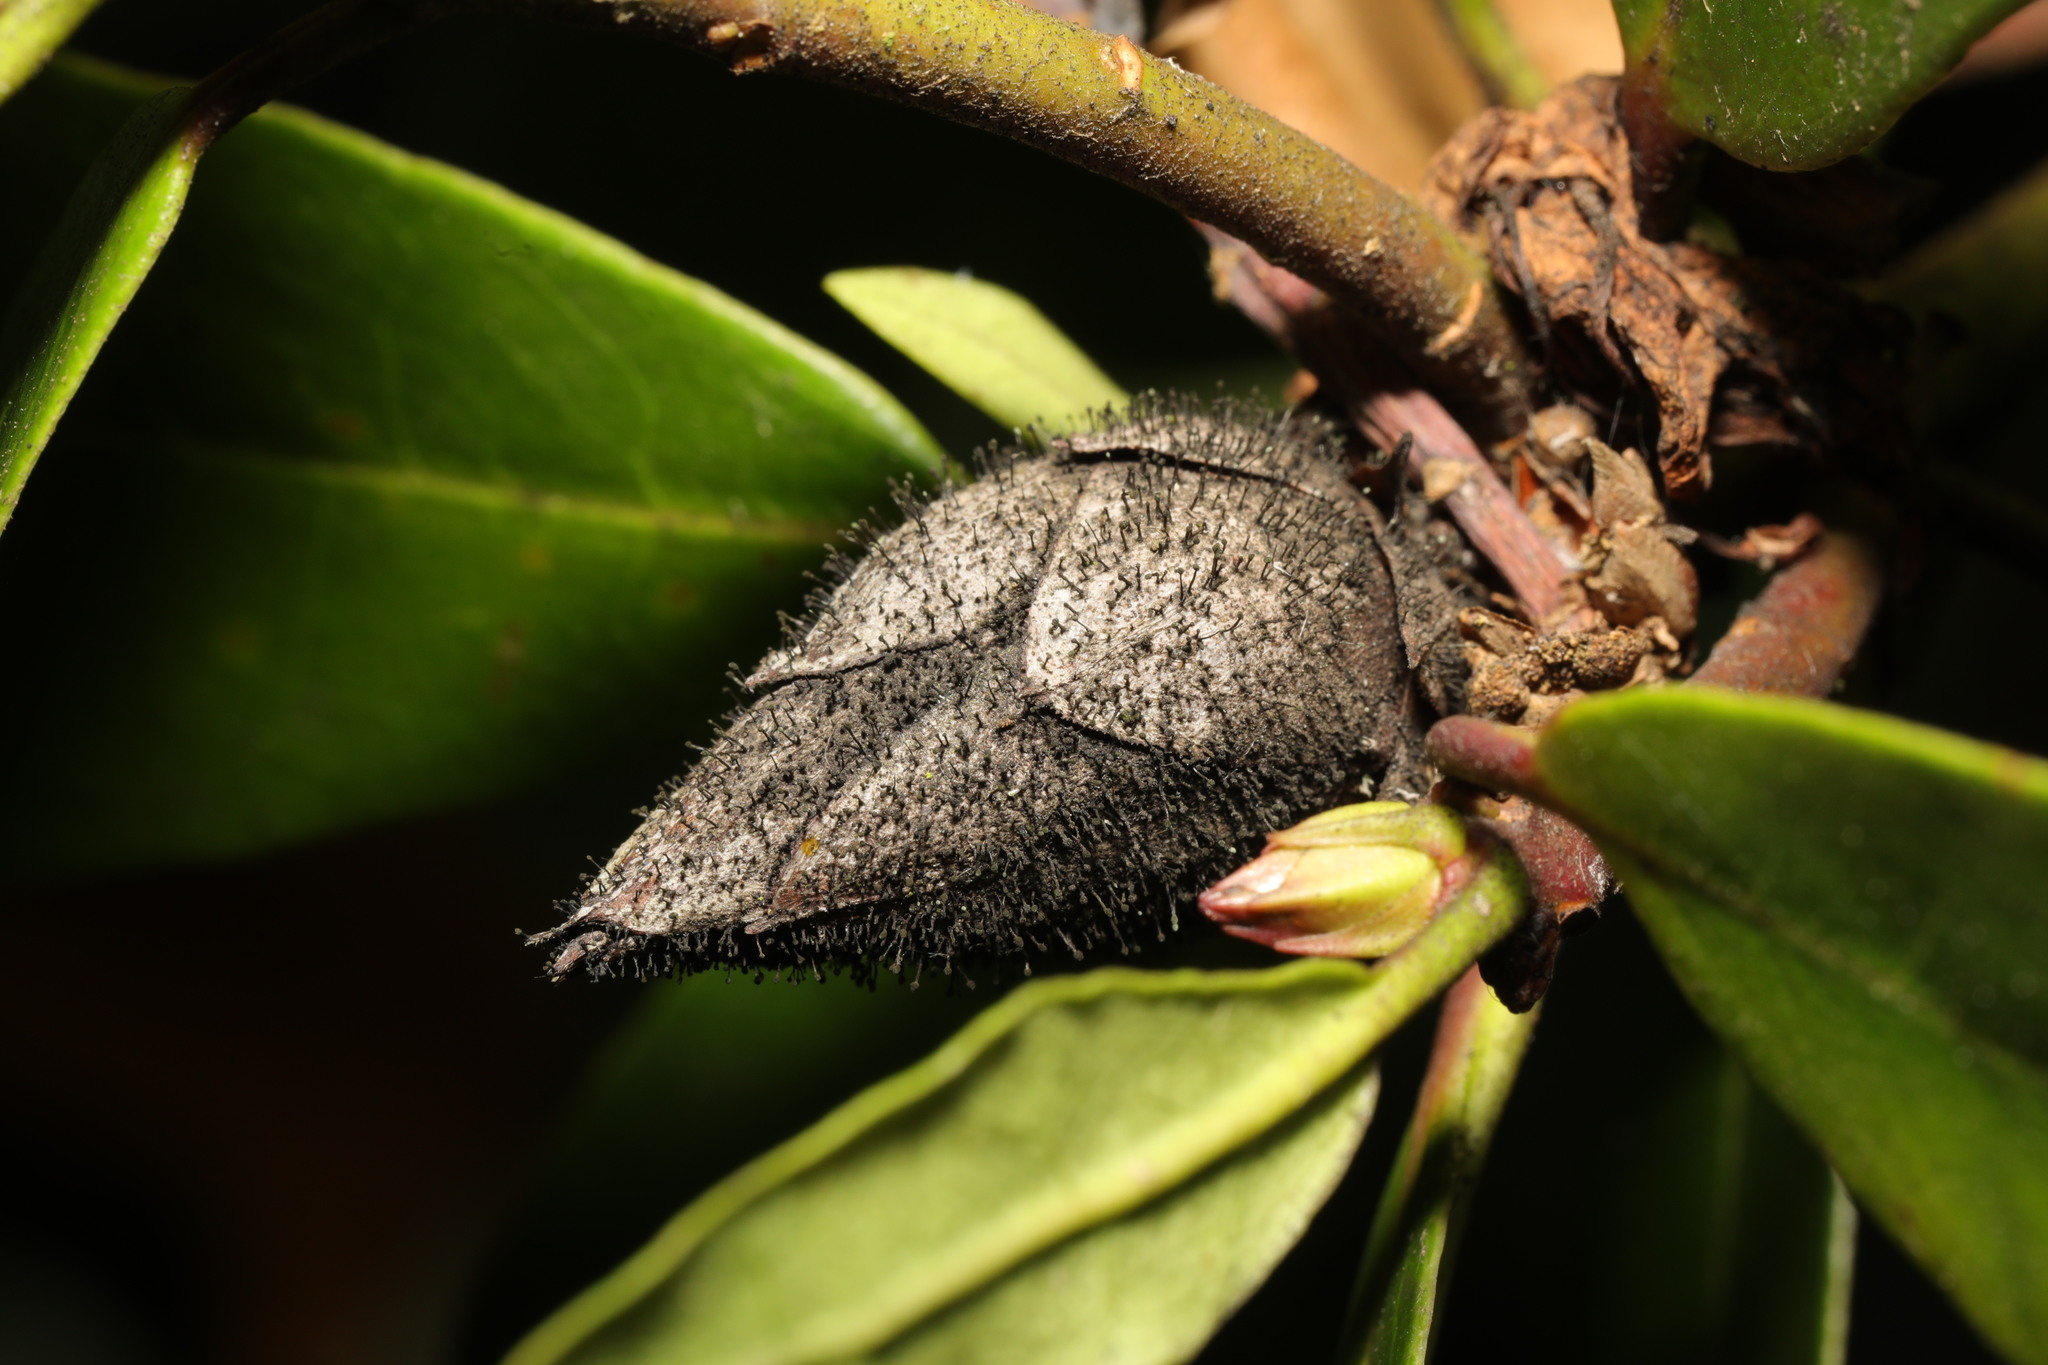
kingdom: Fungi
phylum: Ascomycota
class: Dothideomycetes
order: Pleosporales
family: Melanommataceae
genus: Seifertia
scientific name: Seifertia azaleae
